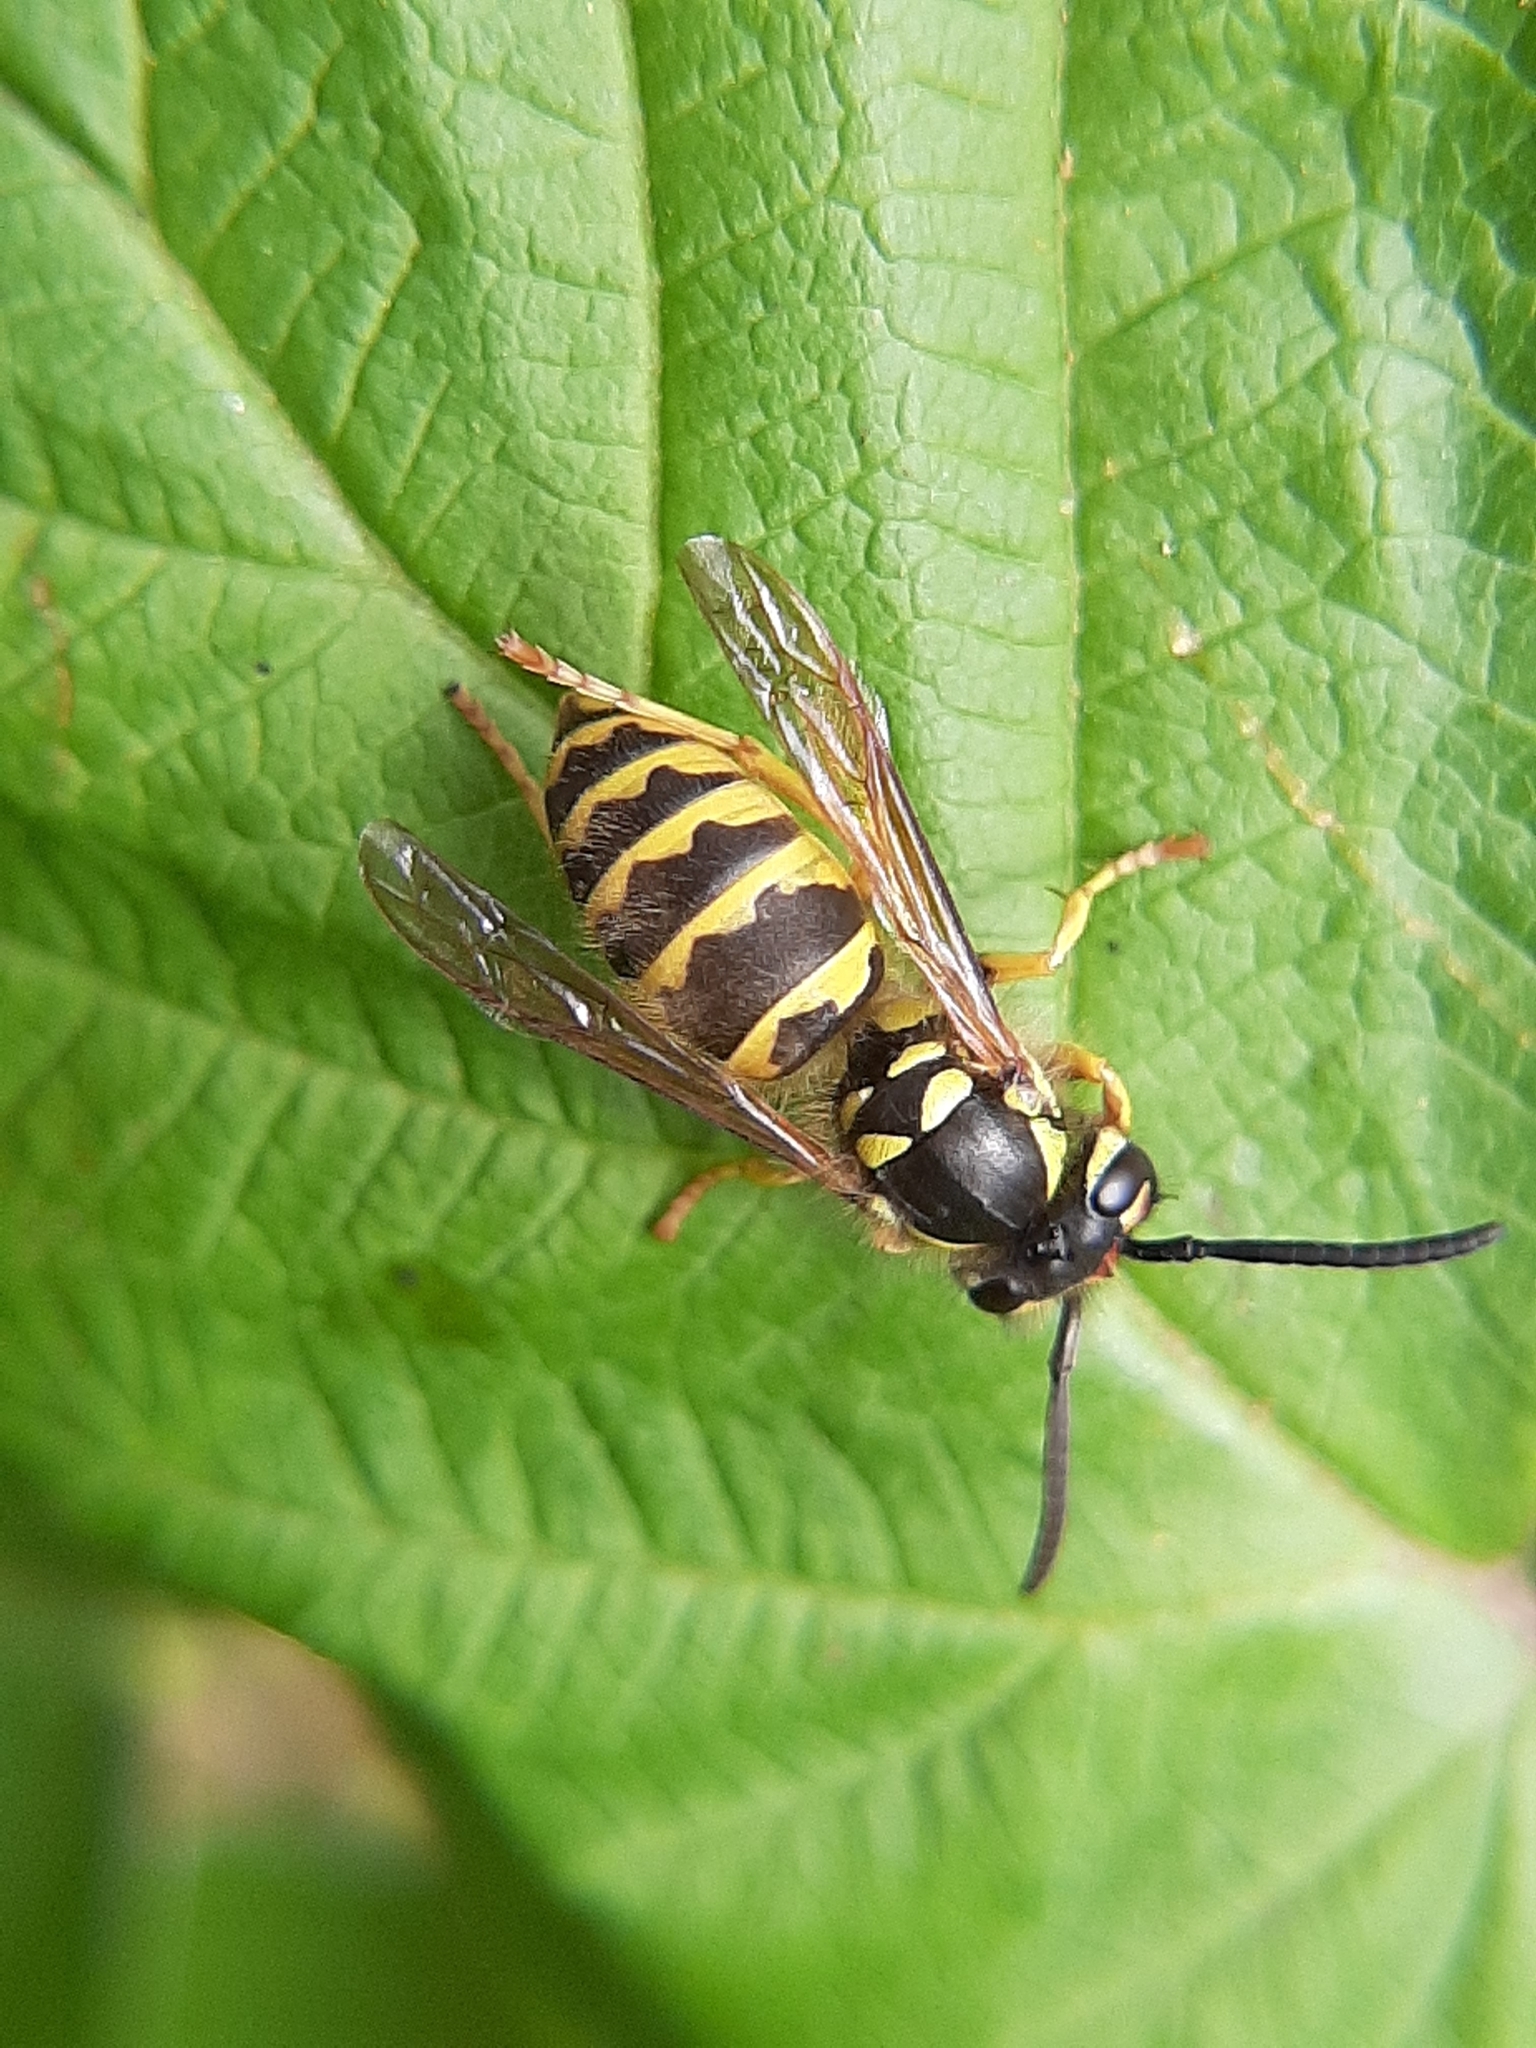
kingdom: Animalia
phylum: Arthropoda
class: Insecta
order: Hymenoptera
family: Vespidae
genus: Vespula
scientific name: Vespula flavopilosa
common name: Downy yellowjacket
